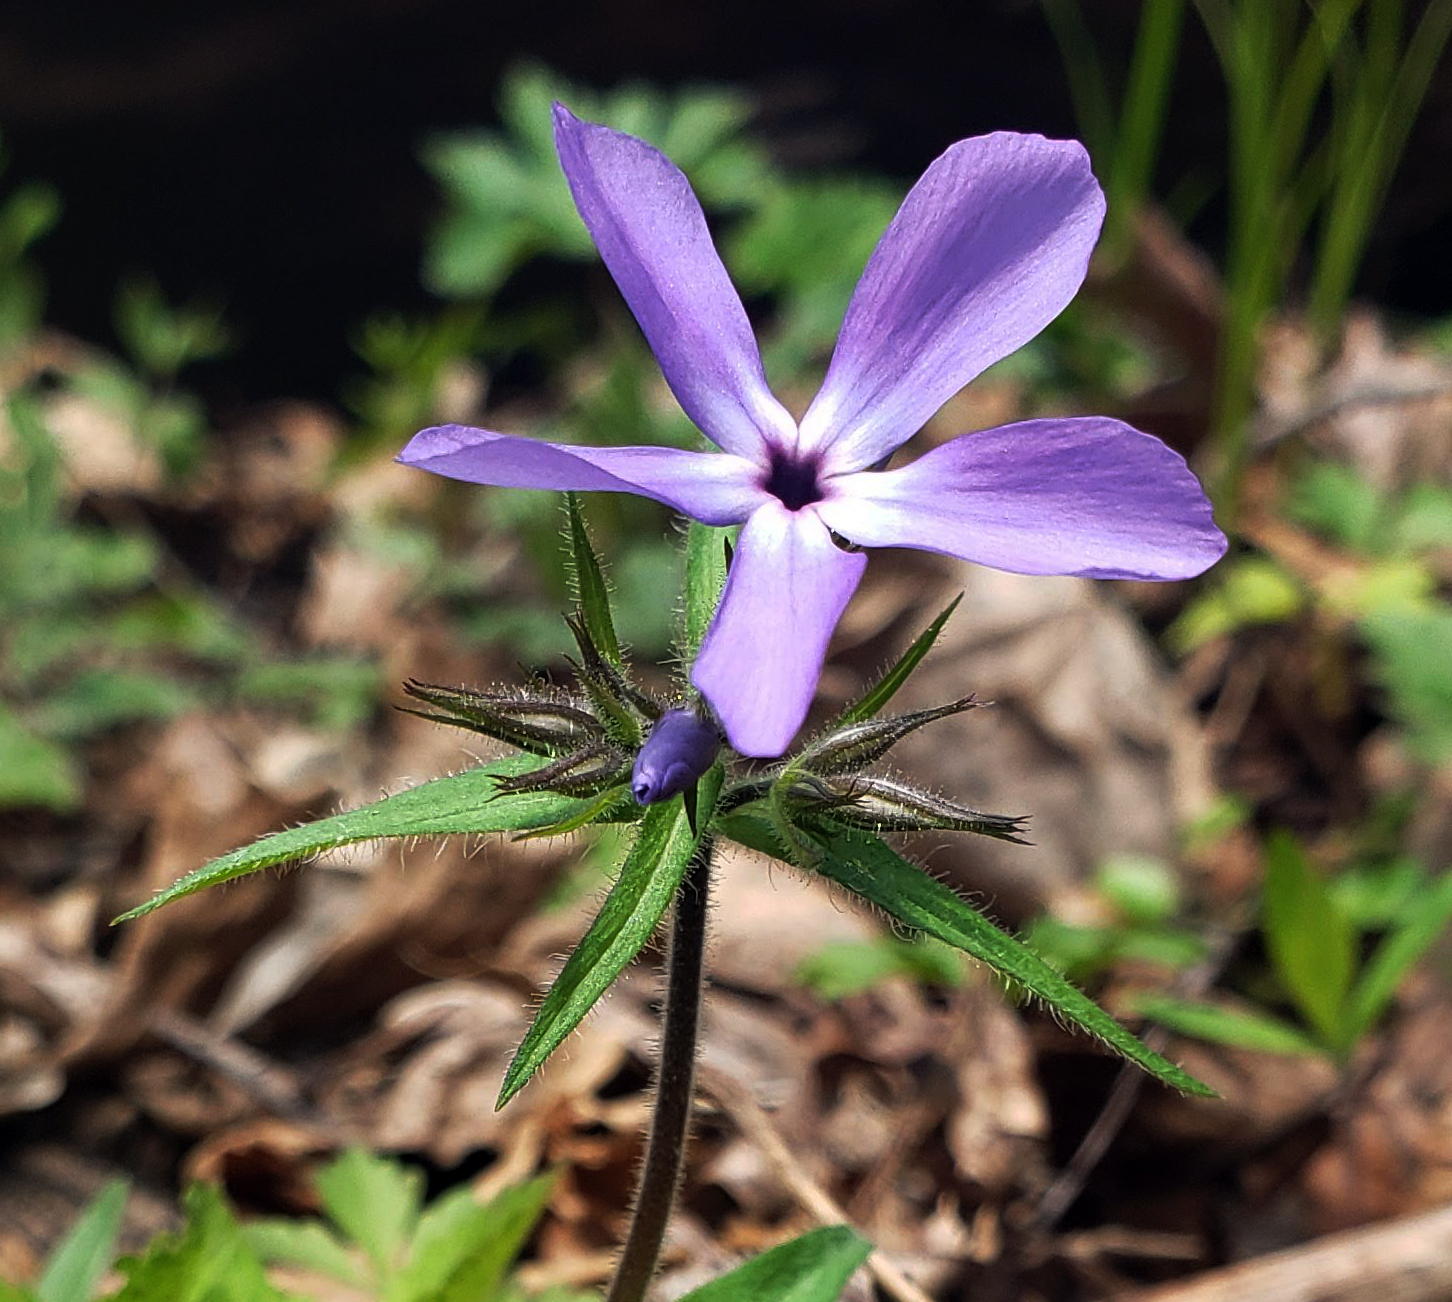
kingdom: Plantae
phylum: Tracheophyta
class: Magnoliopsida
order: Ericales
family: Polemoniaceae
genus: Phlox
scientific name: Phlox divaricata
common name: Blue phlox
